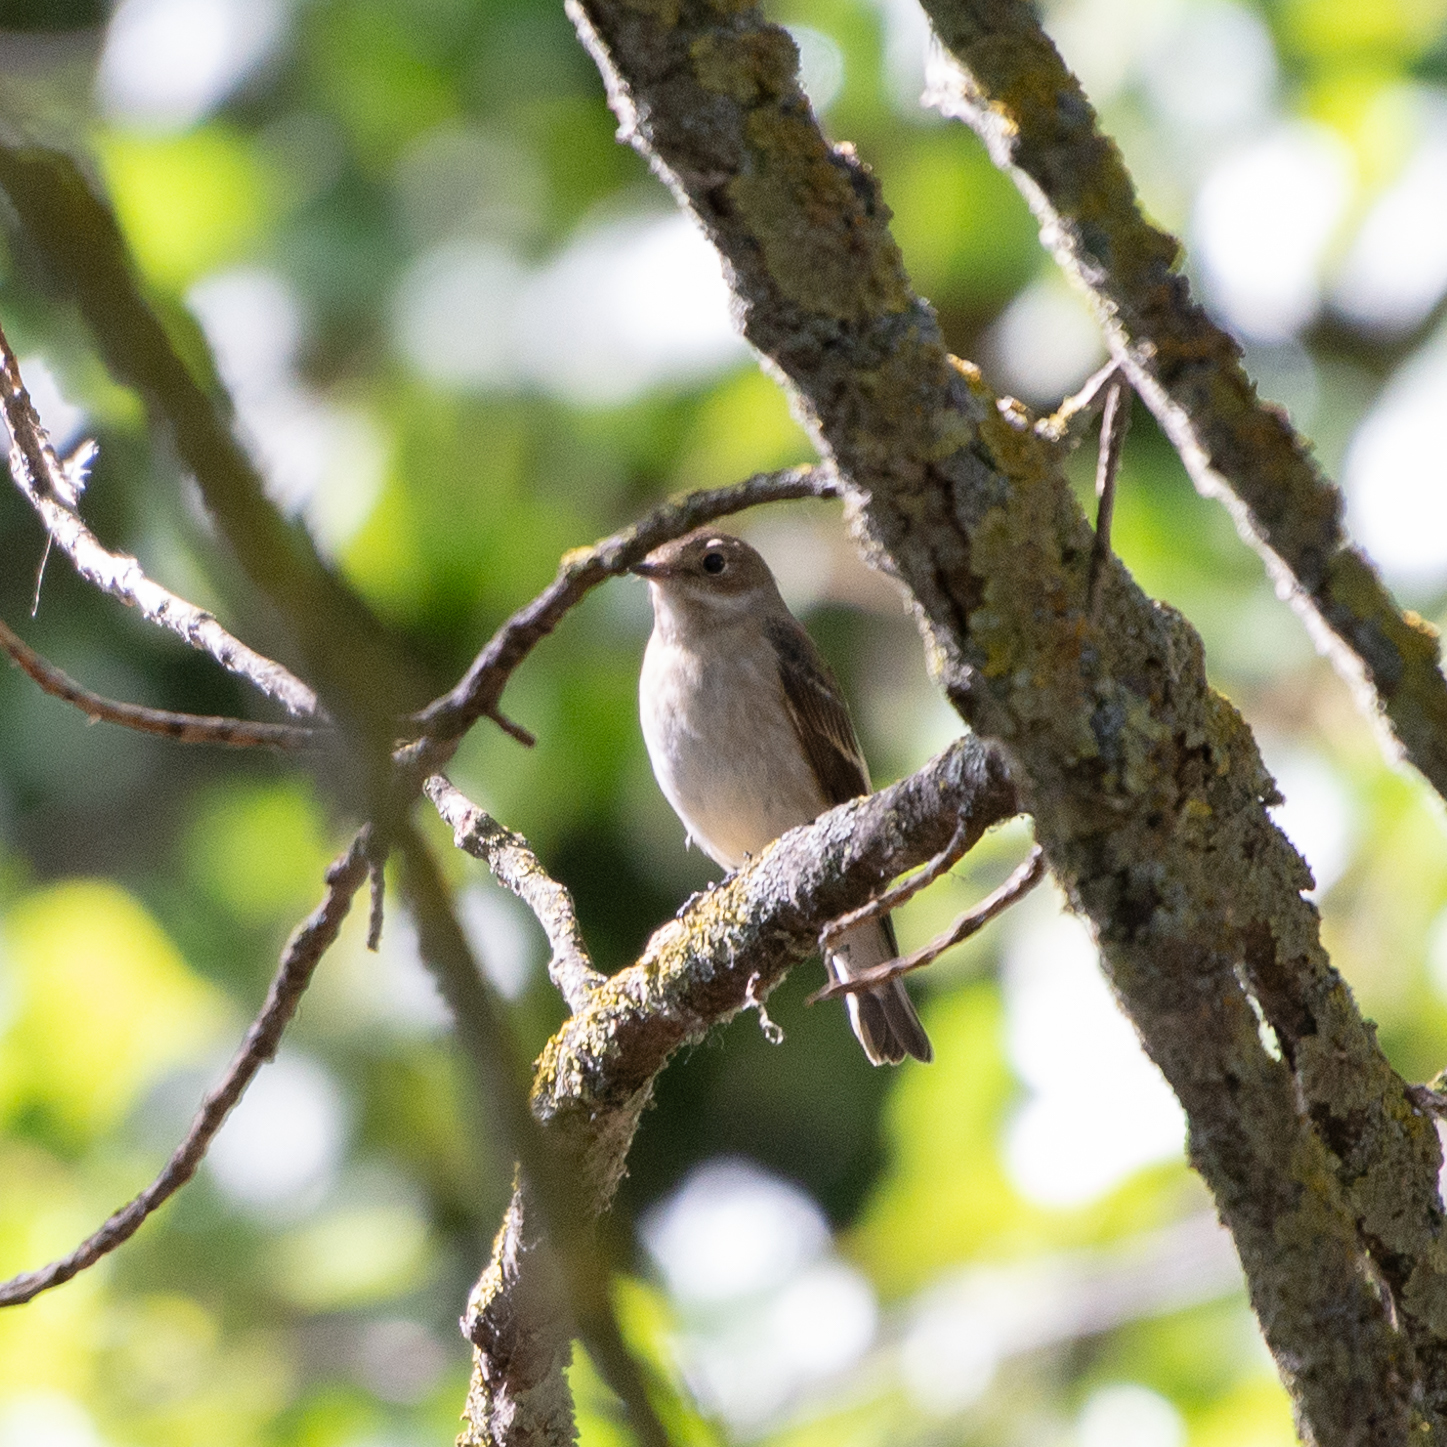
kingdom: Animalia
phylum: Chordata
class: Aves
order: Passeriformes
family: Muscicapidae
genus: Ficedula
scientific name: Ficedula hypoleuca
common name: European pied flycatcher
